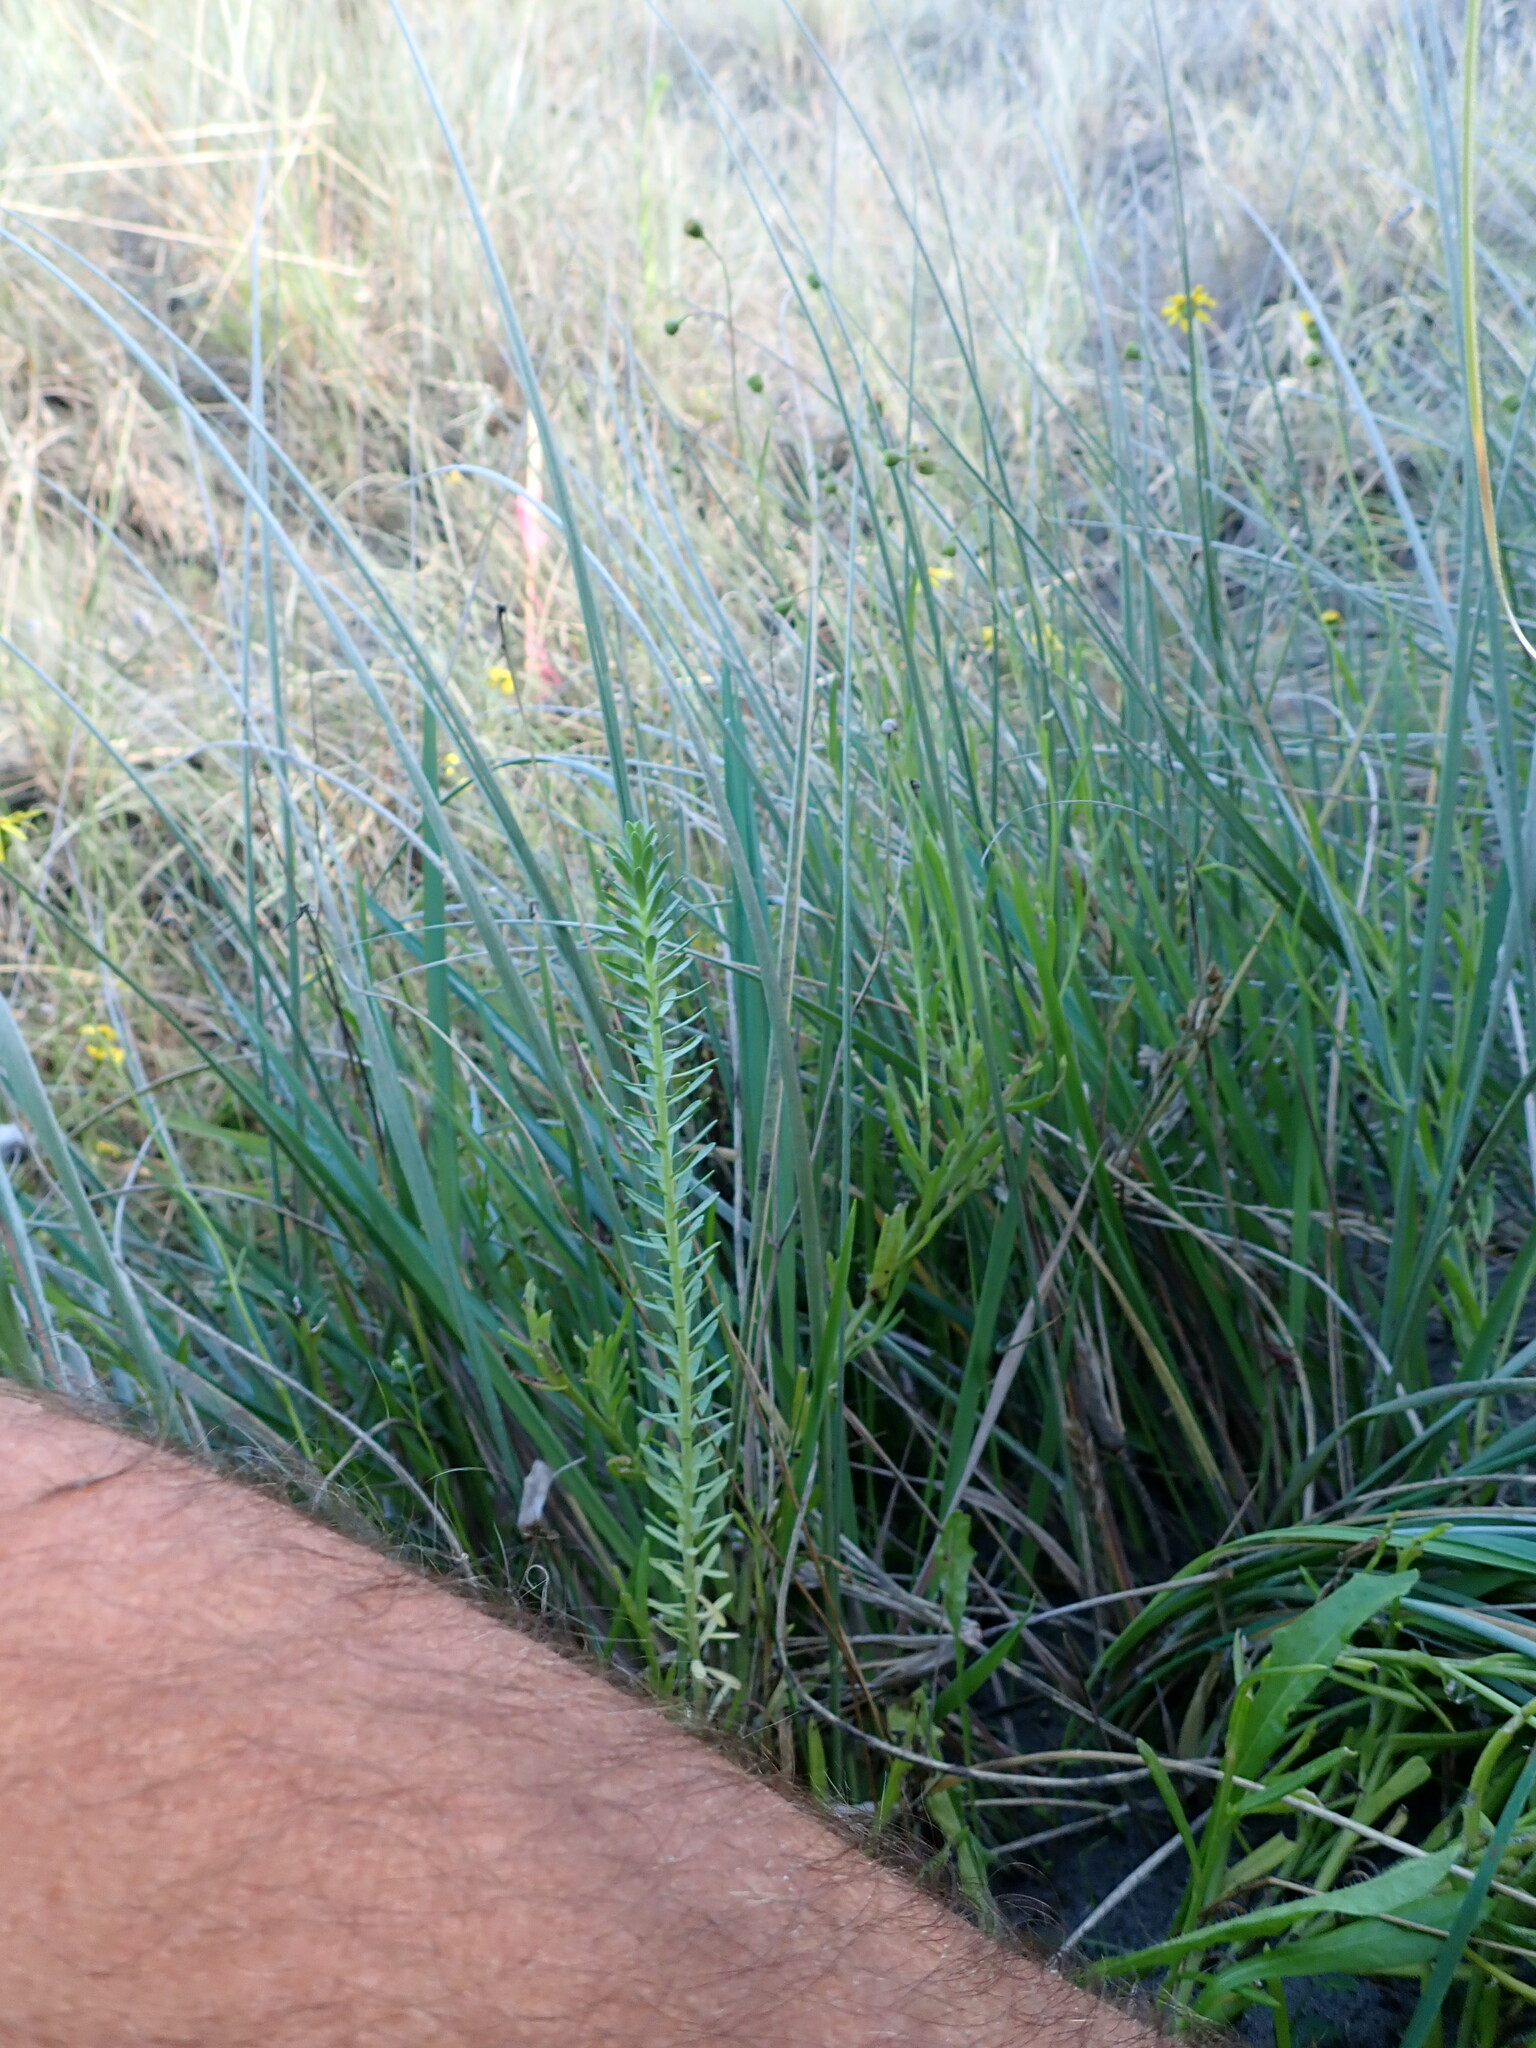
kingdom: Plantae
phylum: Tracheophyta
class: Magnoliopsida
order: Malpighiales
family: Euphorbiaceae
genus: Euphorbia
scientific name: Euphorbia paralias
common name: Sea spurge
